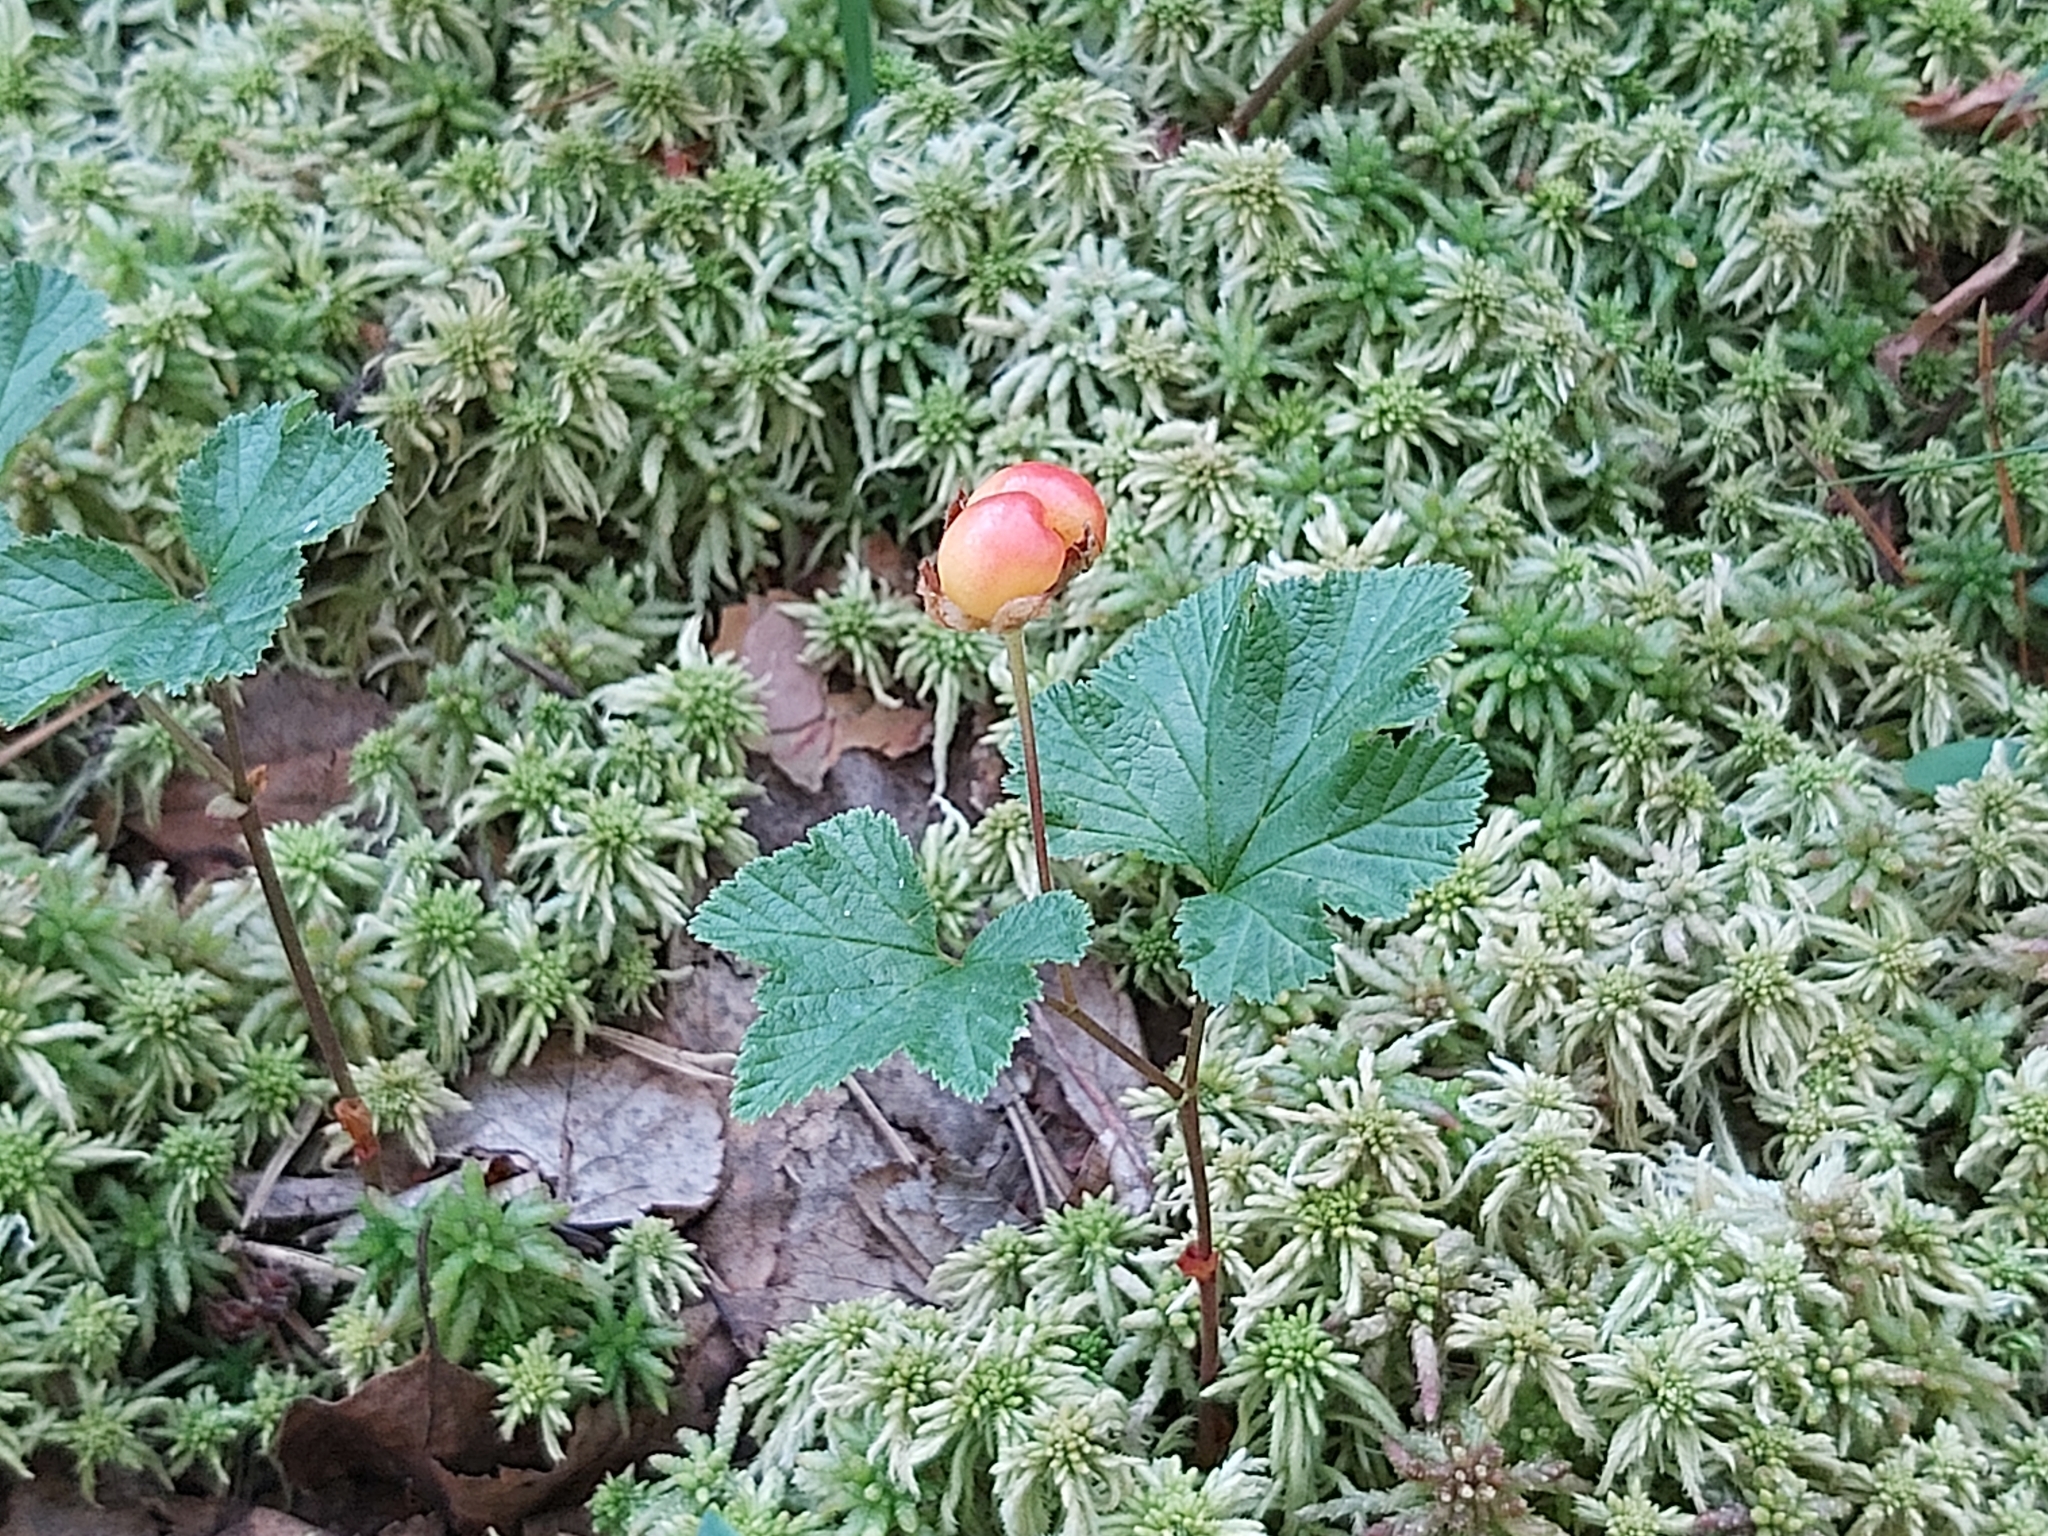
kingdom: Plantae
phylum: Tracheophyta
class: Magnoliopsida
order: Rosales
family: Rosaceae
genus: Rubus
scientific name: Rubus chamaemorus
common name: Cloudberry
